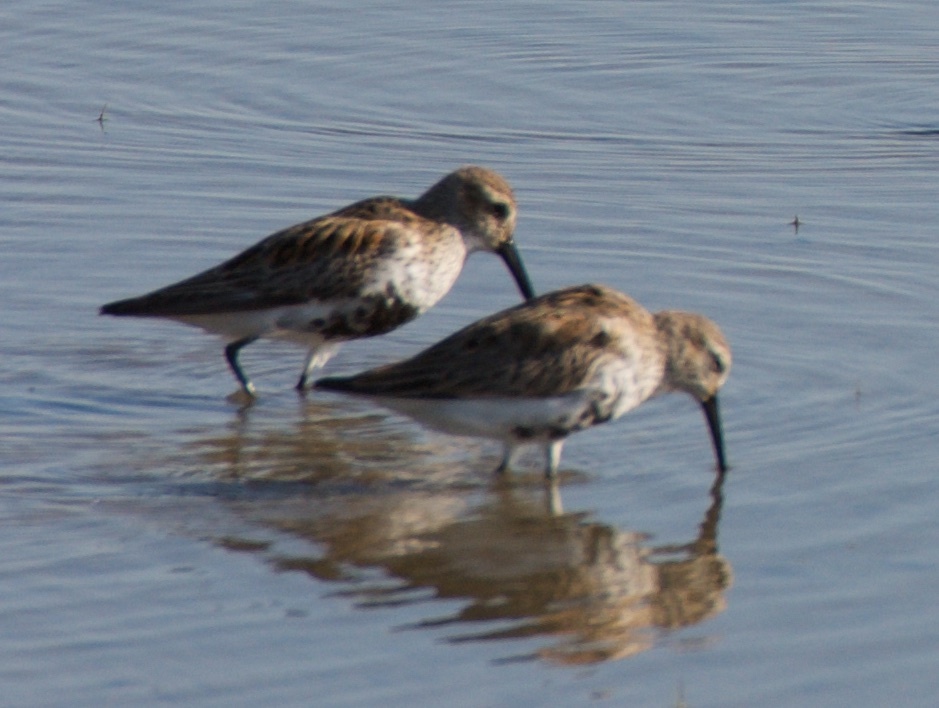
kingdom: Animalia
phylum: Chordata
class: Aves
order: Charadriiformes
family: Scolopacidae
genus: Calidris
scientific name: Calidris alpina
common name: Dunlin
